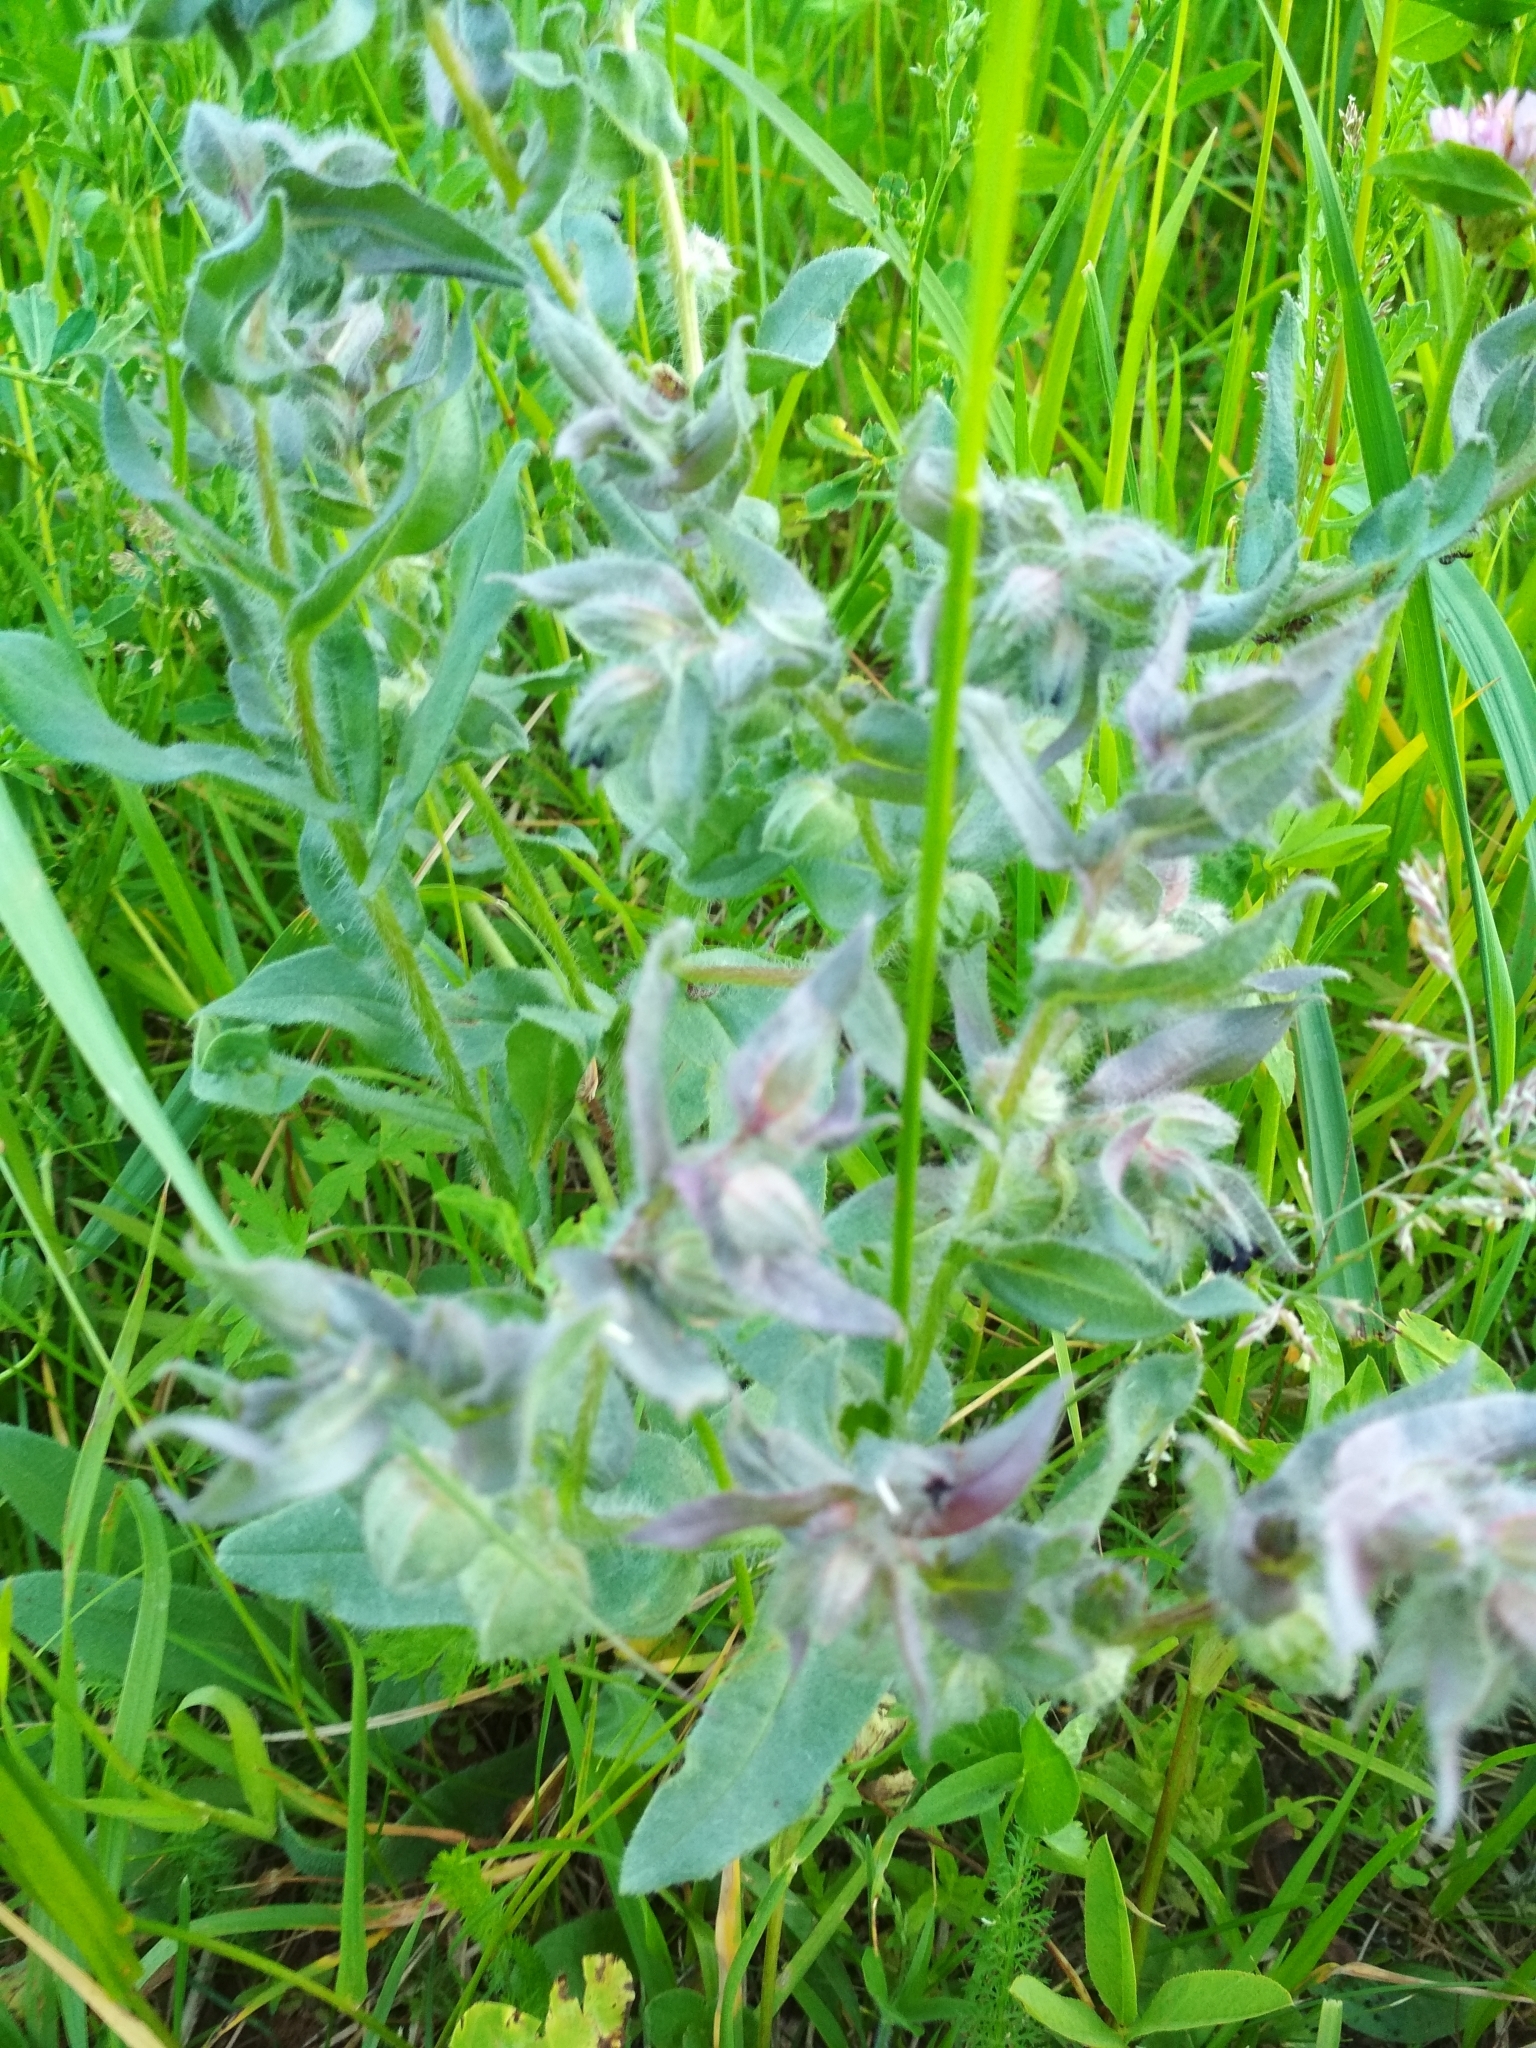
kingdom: Plantae
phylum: Tracheophyta
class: Magnoliopsida
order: Boraginales
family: Boraginaceae
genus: Nonea
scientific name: Nonea pulla
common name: Brown nonea
